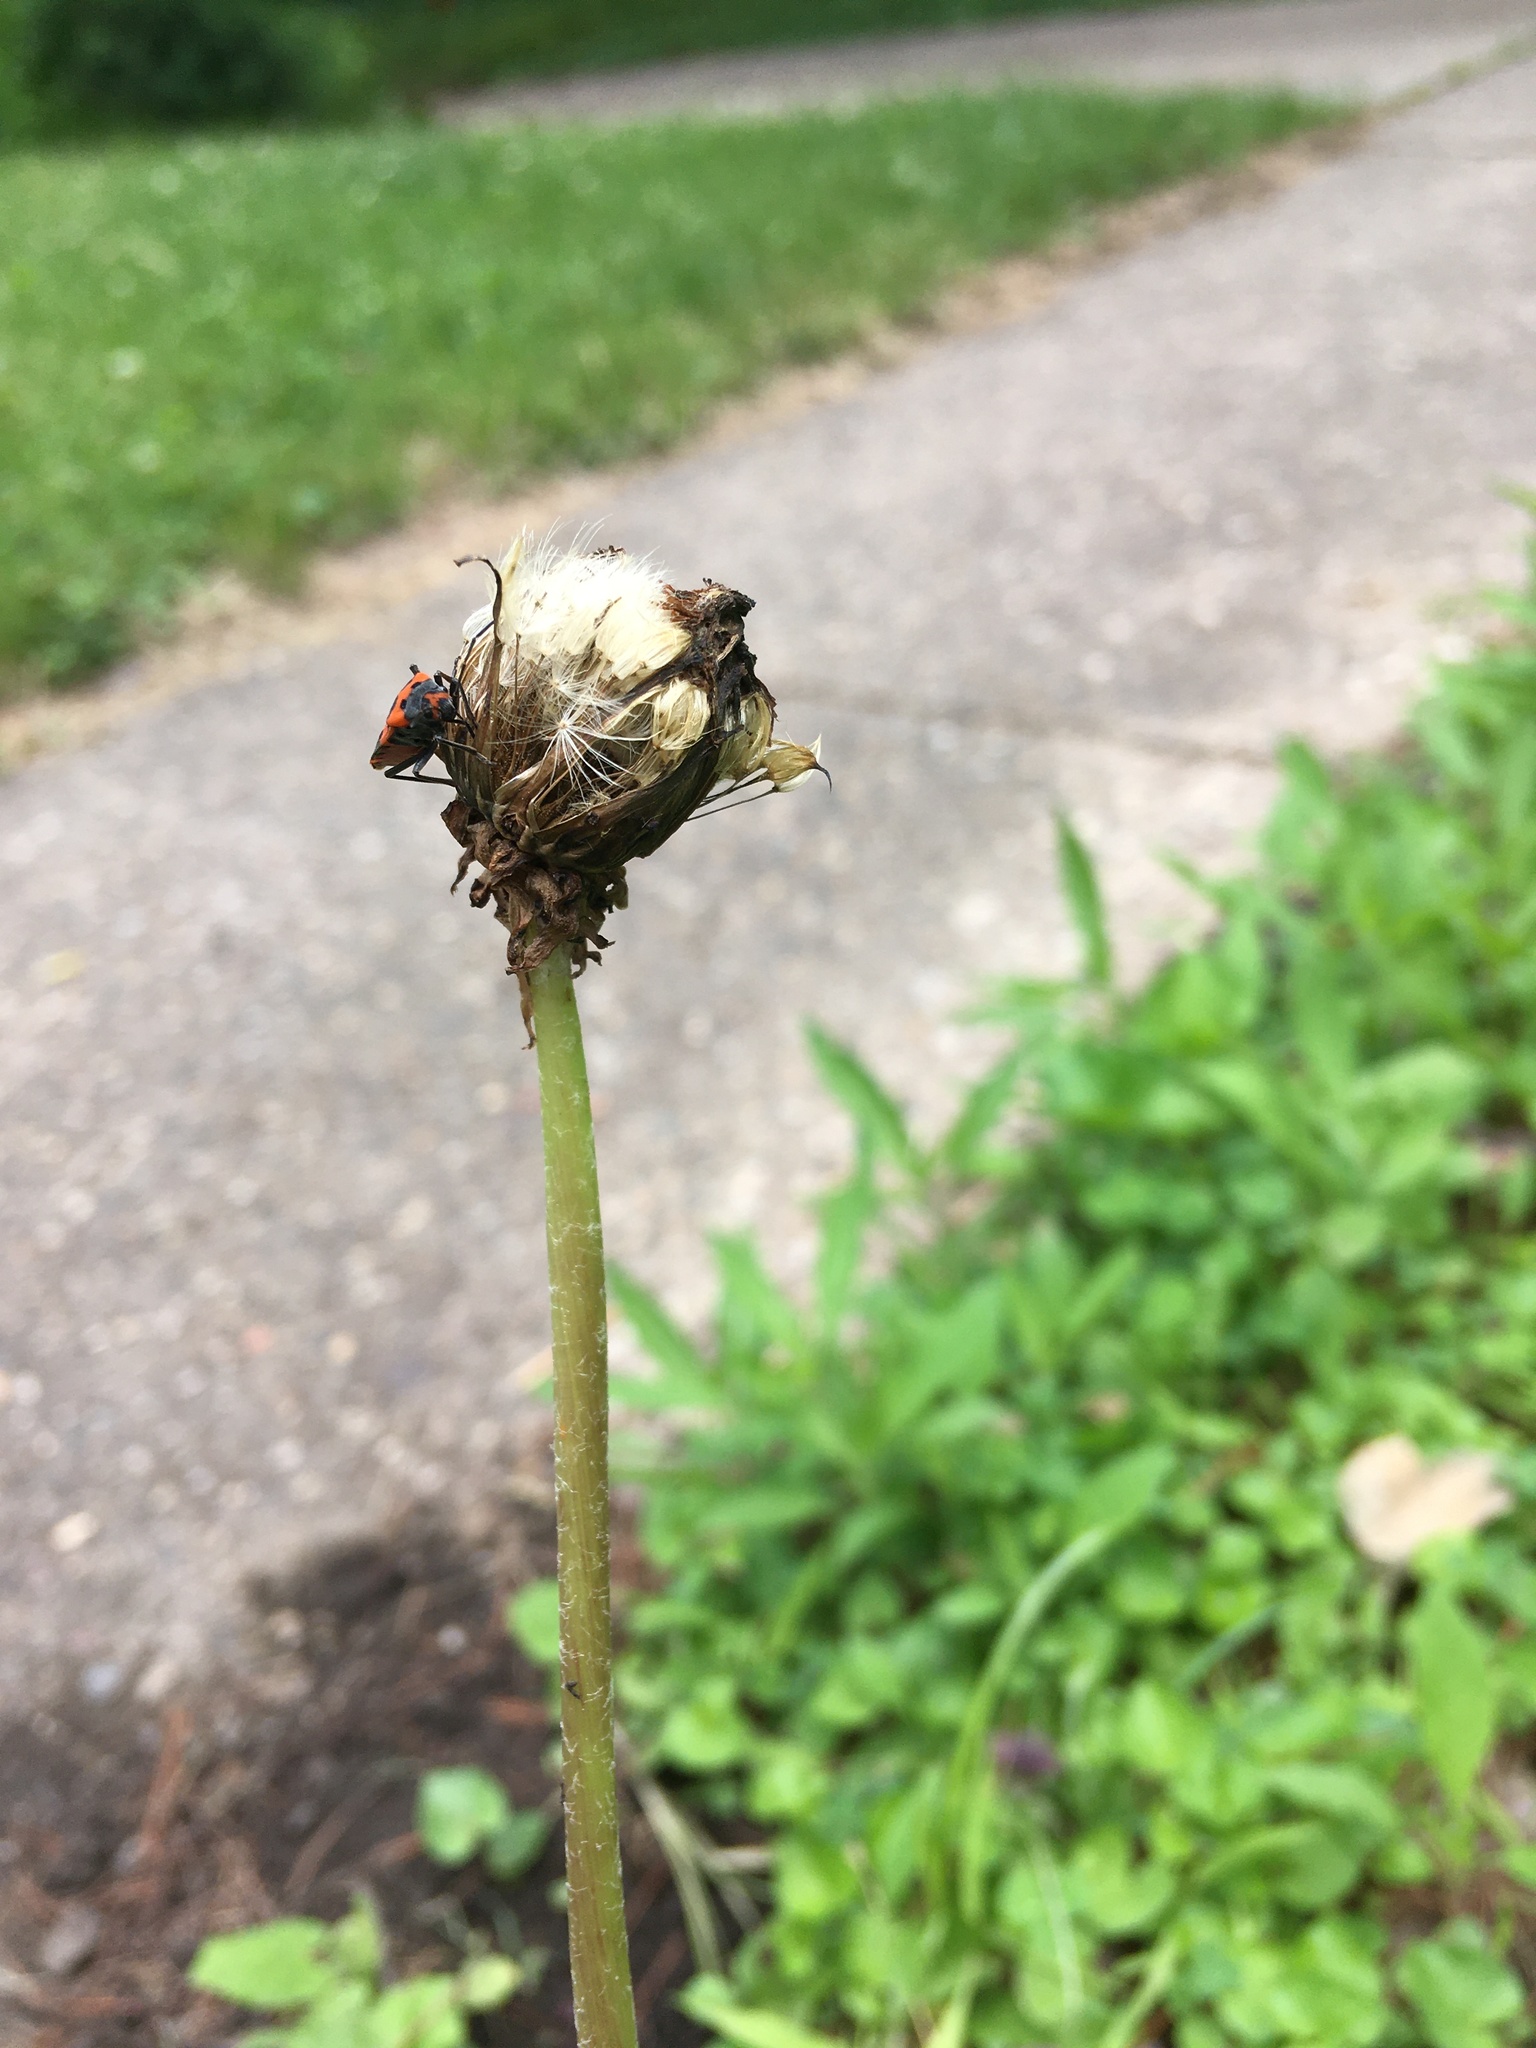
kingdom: Animalia
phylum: Arthropoda
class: Insecta
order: Hemiptera
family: Lygaeidae
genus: Lygaeus
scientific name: Lygaeus turcicus
